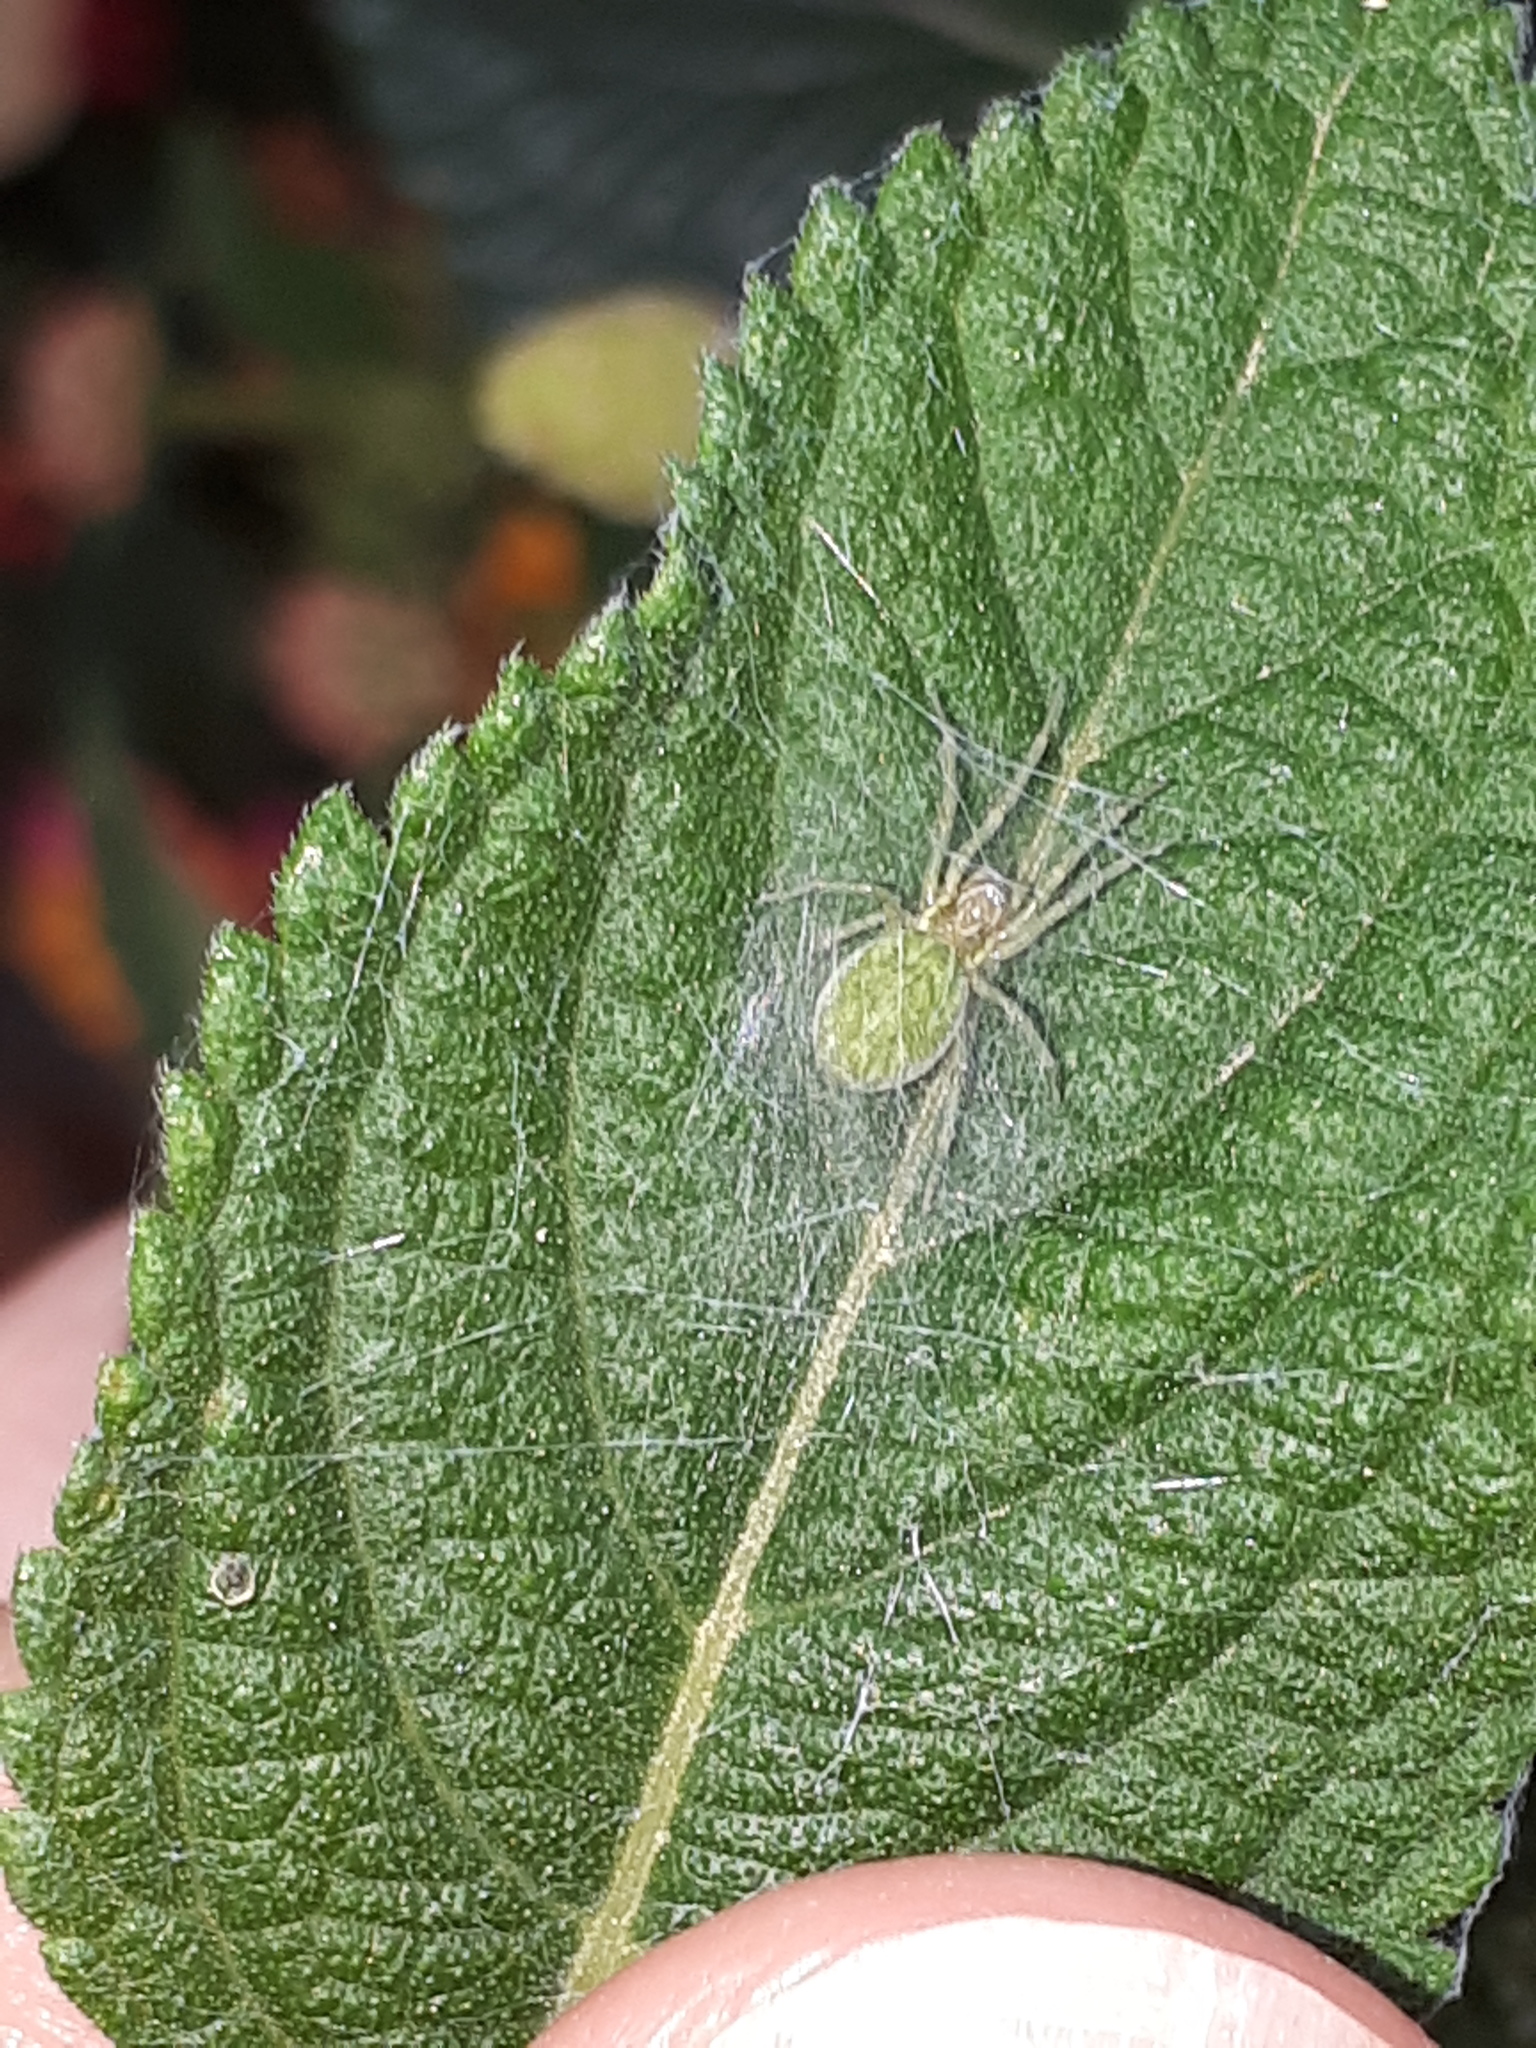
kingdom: Animalia
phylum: Arthropoda
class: Arachnida
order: Araneae
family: Dictynidae
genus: Nigma
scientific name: Nigma walckenaeri
